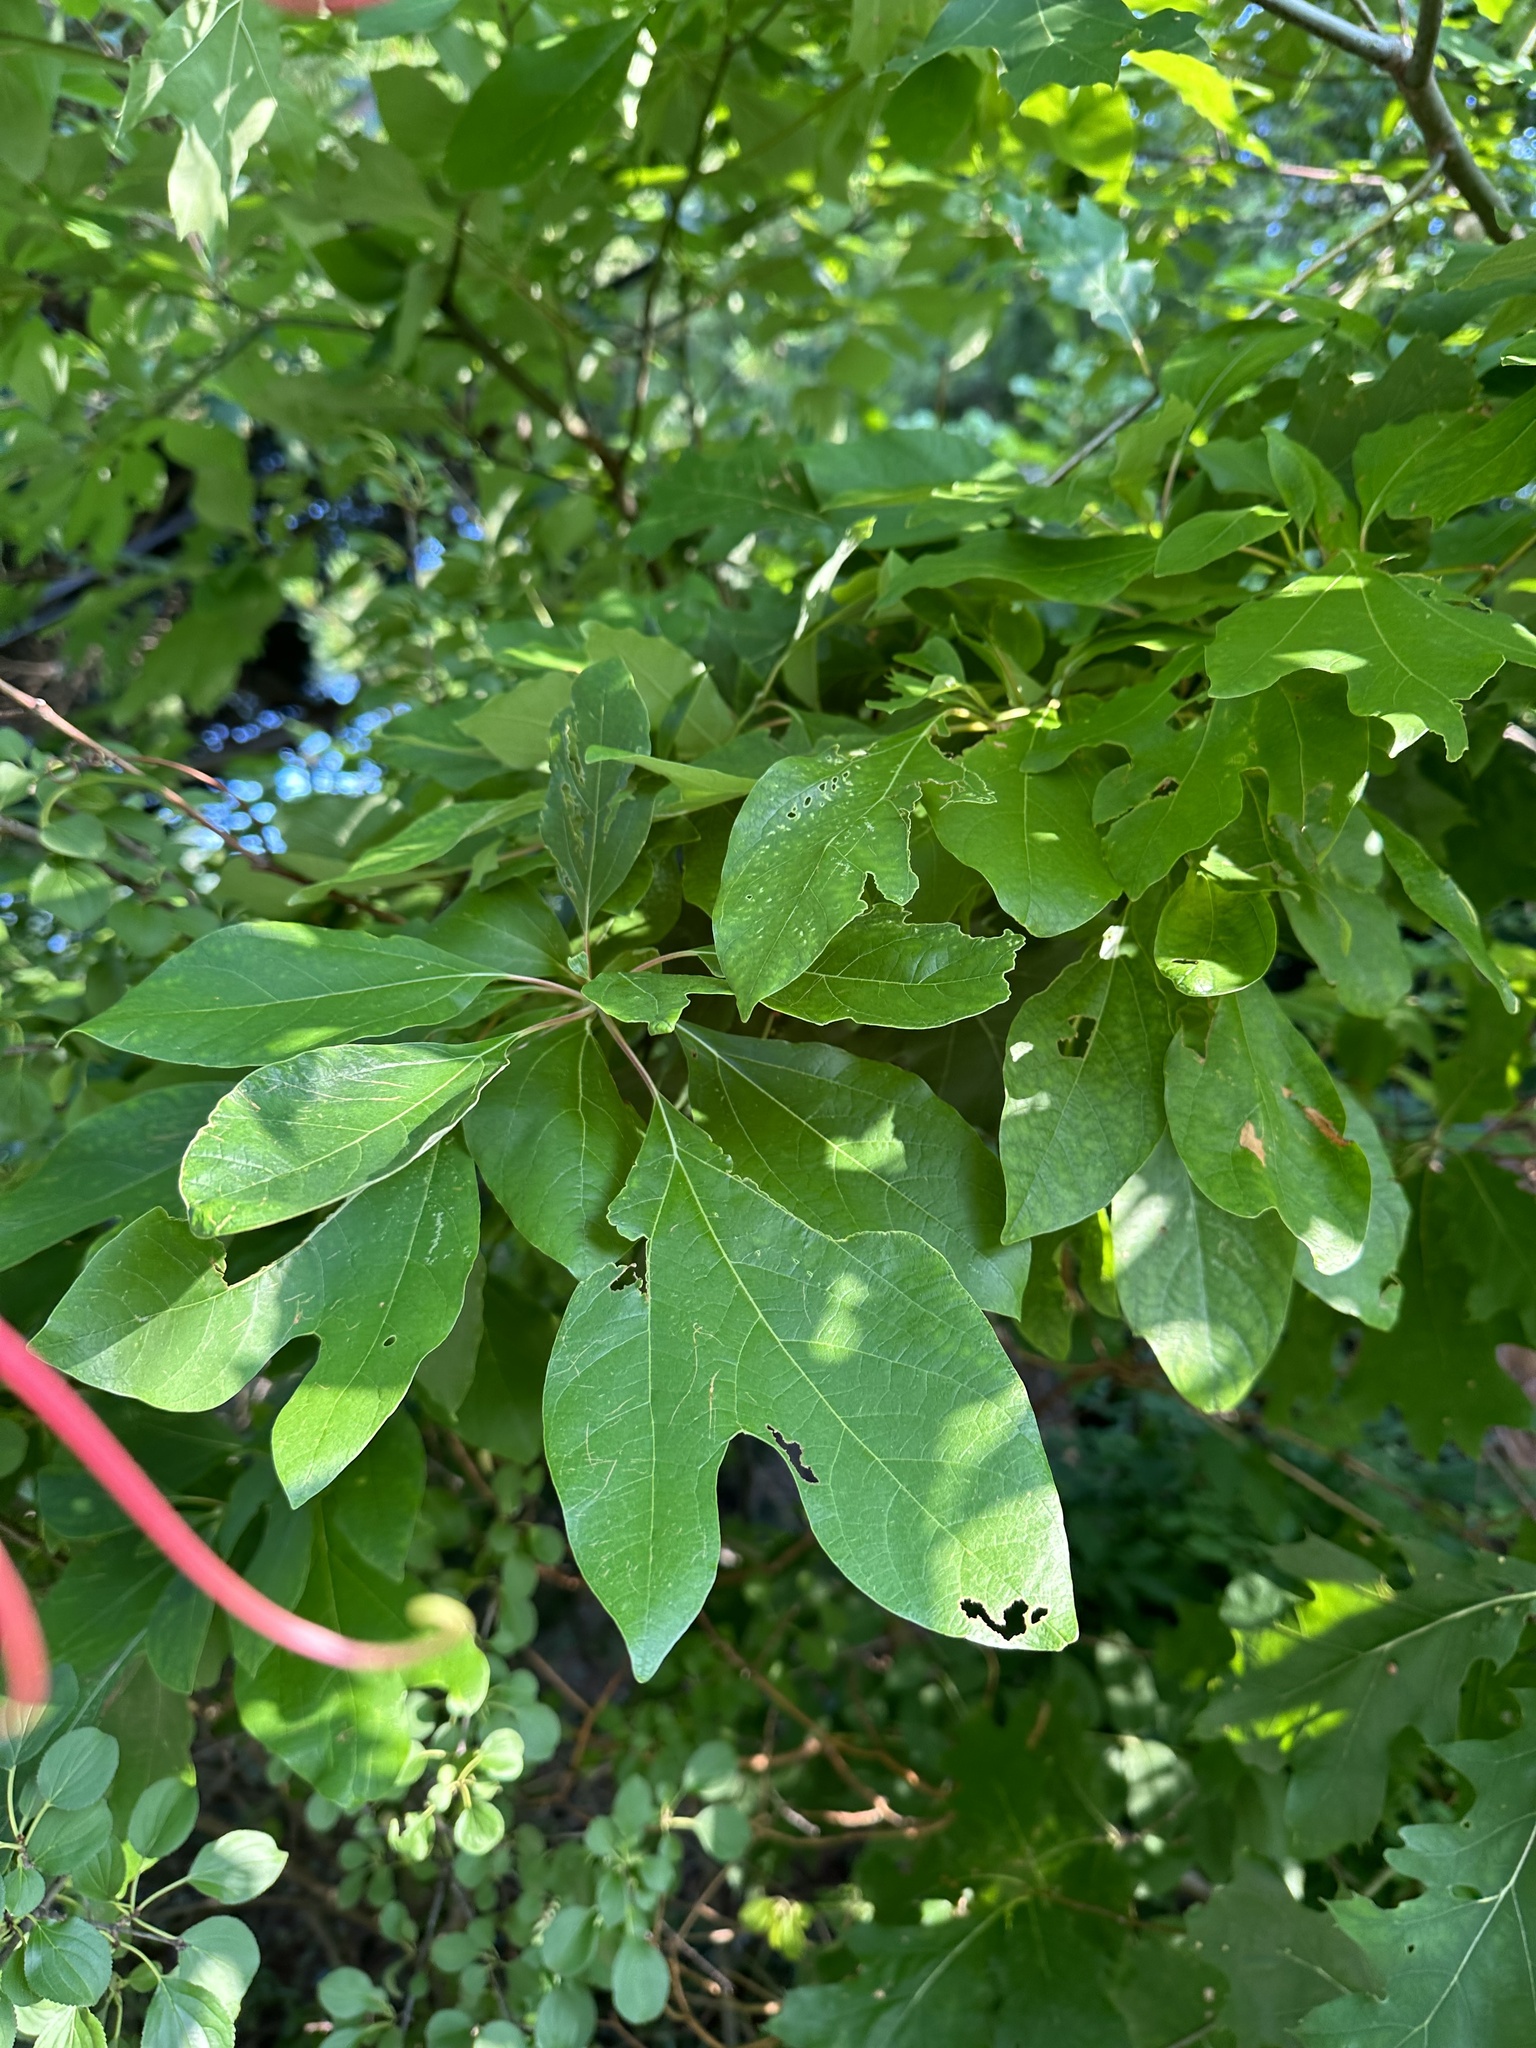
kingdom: Plantae
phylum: Tracheophyta
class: Magnoliopsida
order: Laurales
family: Lauraceae
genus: Sassafras
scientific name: Sassafras albidum
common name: Sassafras
